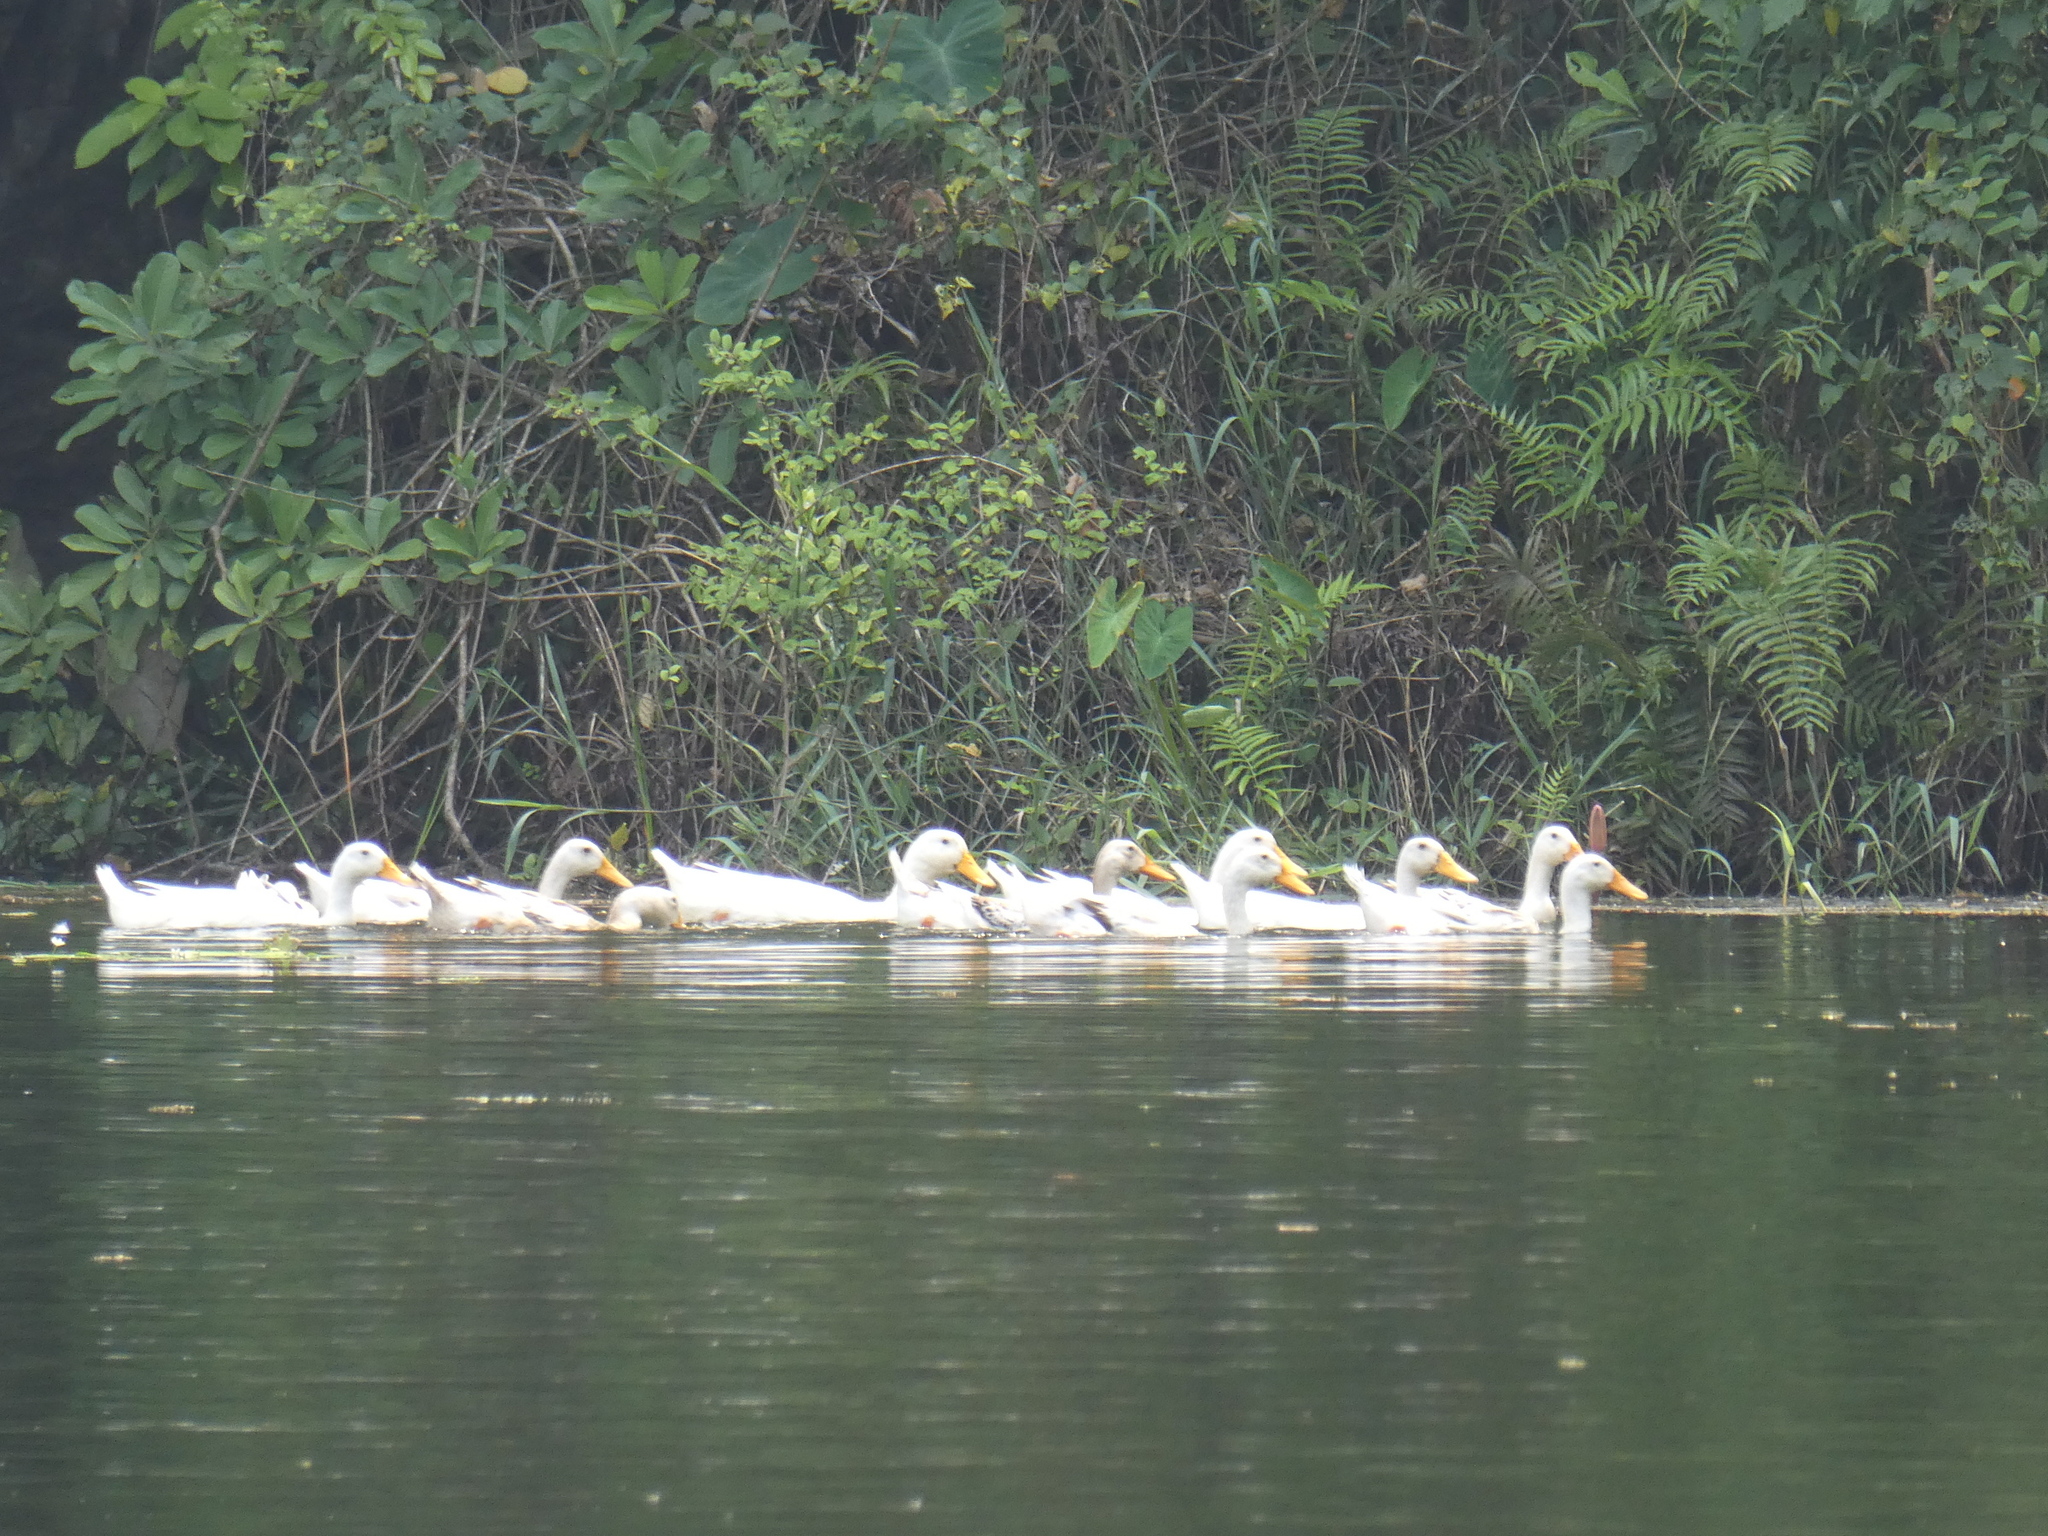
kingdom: Animalia
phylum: Chordata
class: Aves
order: Anseriformes
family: Anatidae
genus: Anas
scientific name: Anas platyrhynchos
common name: Mallard
